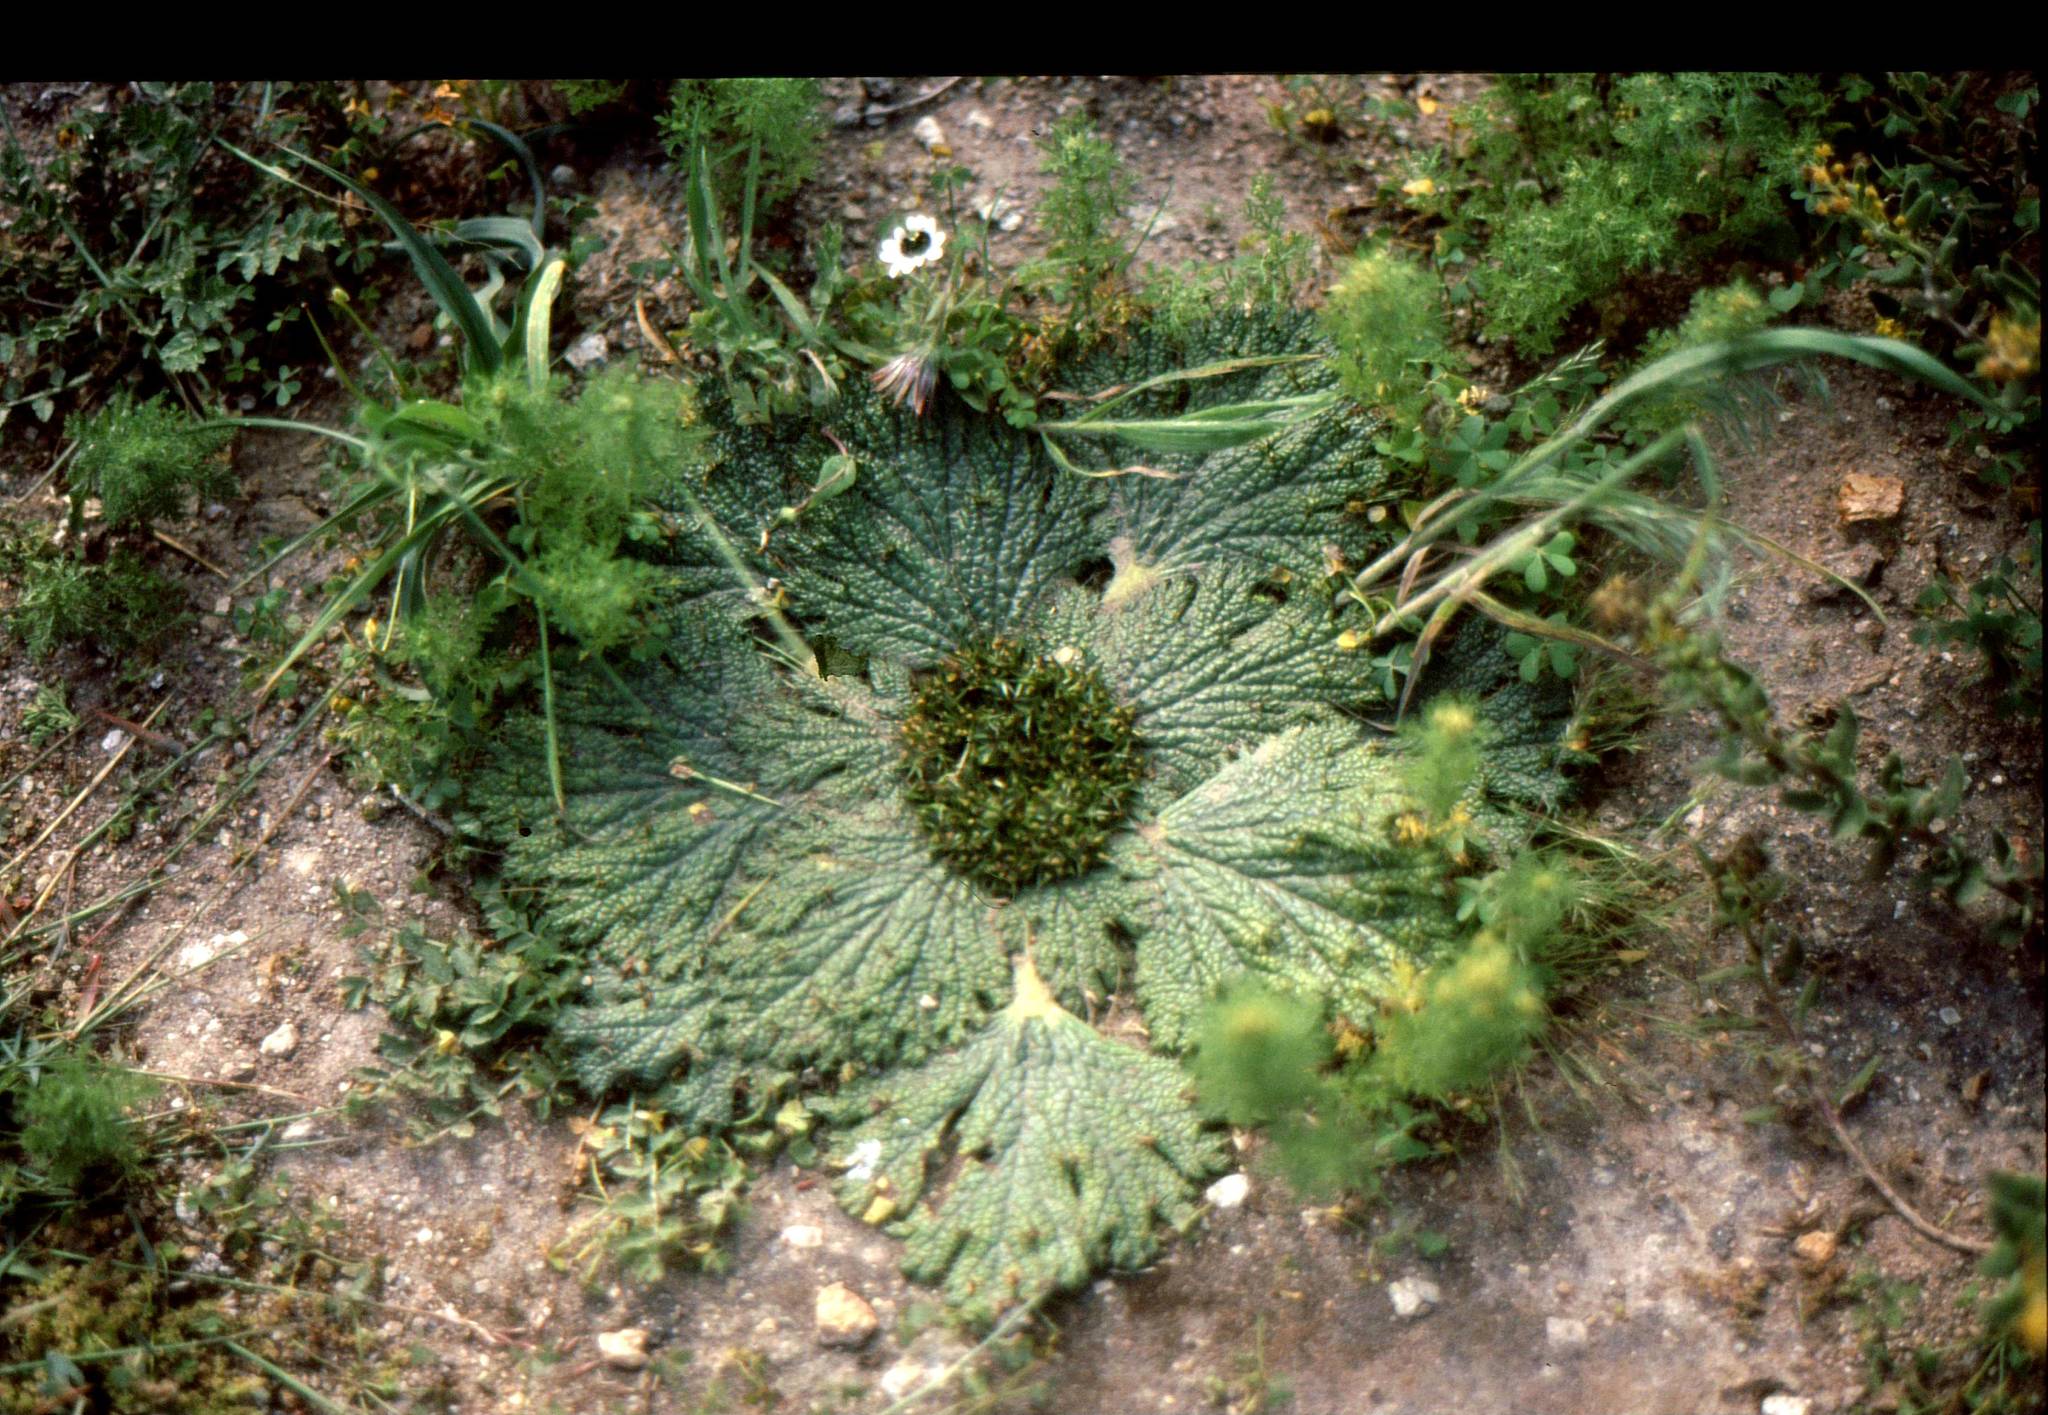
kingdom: Plantae
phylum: Tracheophyta
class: Magnoliopsida
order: Apiales
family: Apiaceae
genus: Arctopus
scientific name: Arctopus echinatus
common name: Platdoring
